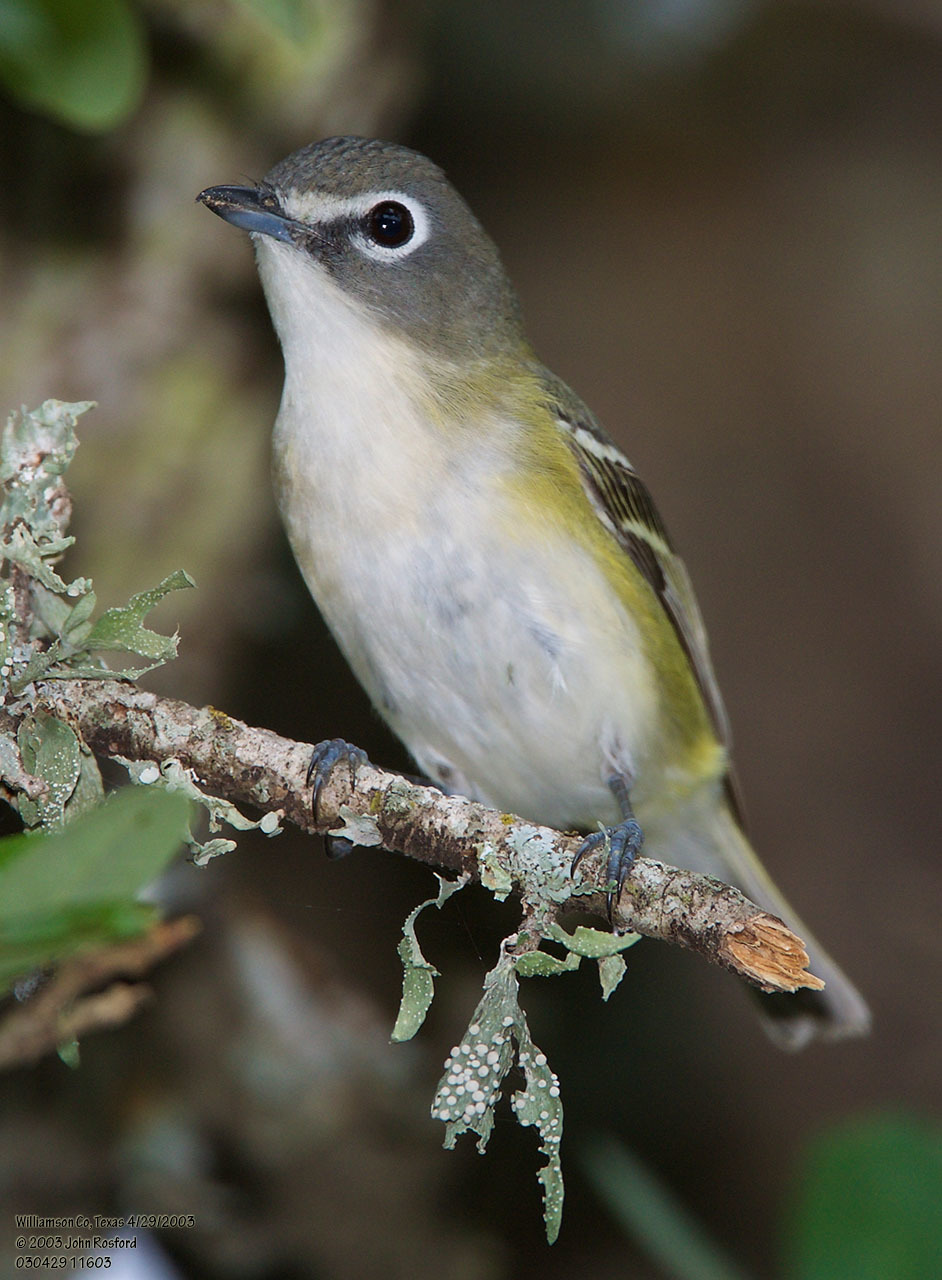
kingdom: Animalia
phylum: Chordata
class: Aves
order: Passeriformes
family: Vireonidae
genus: Vireo
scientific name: Vireo solitarius
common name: Blue-headed vireo
